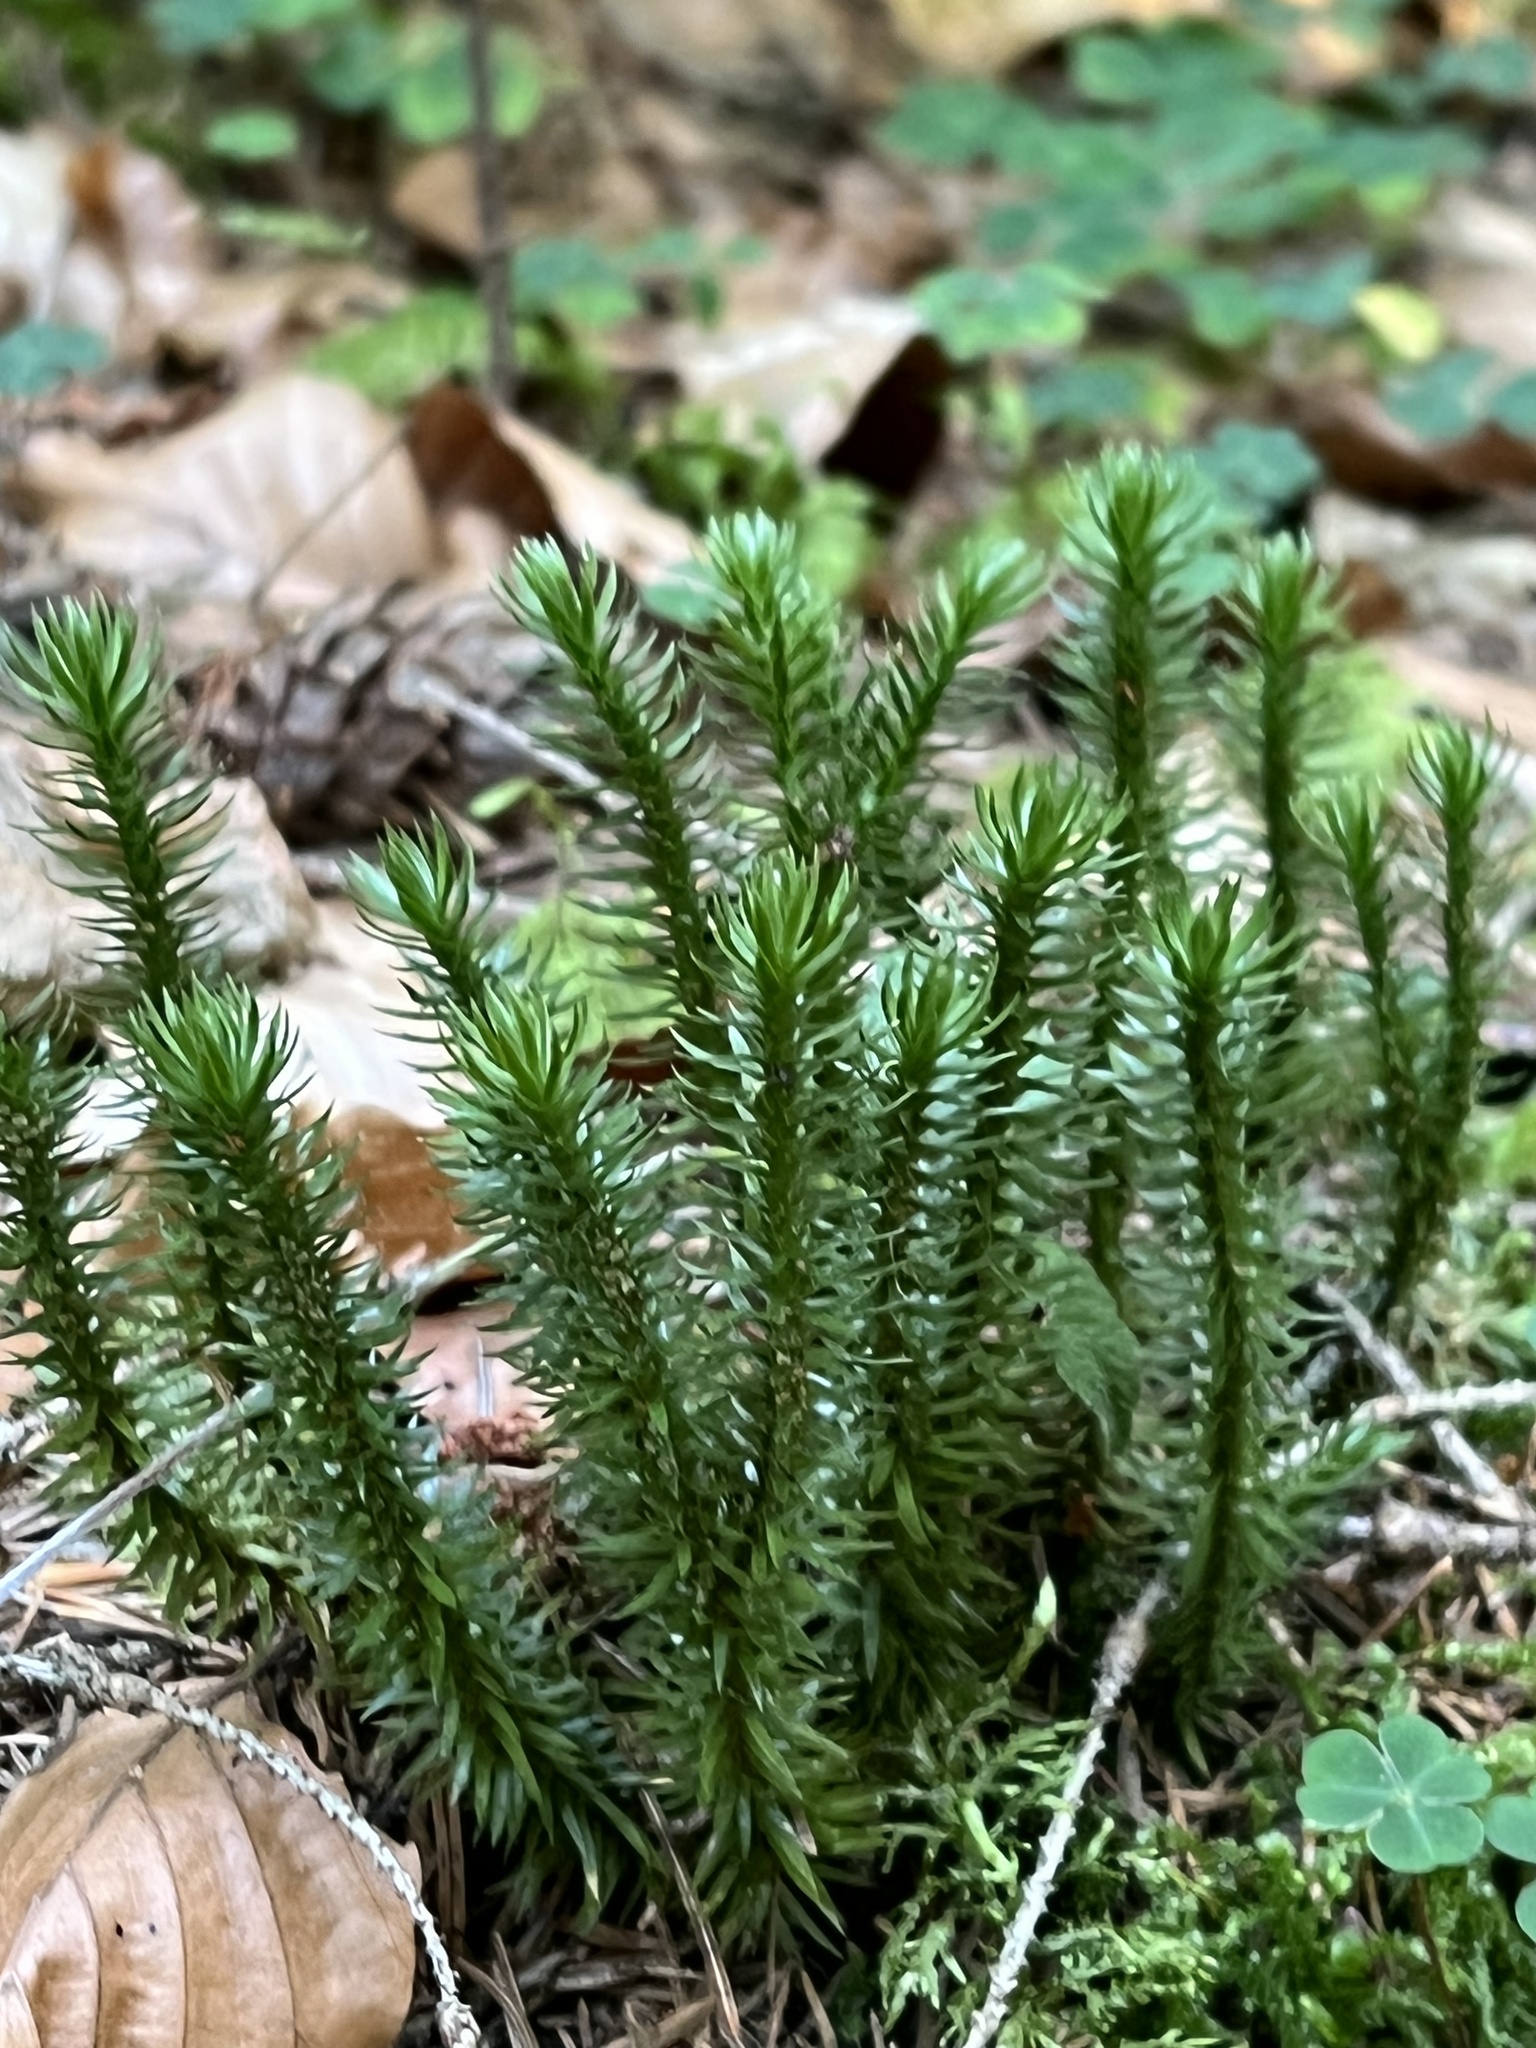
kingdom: Plantae
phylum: Tracheophyta
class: Lycopodiopsida
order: Lycopodiales
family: Lycopodiaceae
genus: Huperzia
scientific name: Huperzia selago
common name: Northern firmoss
